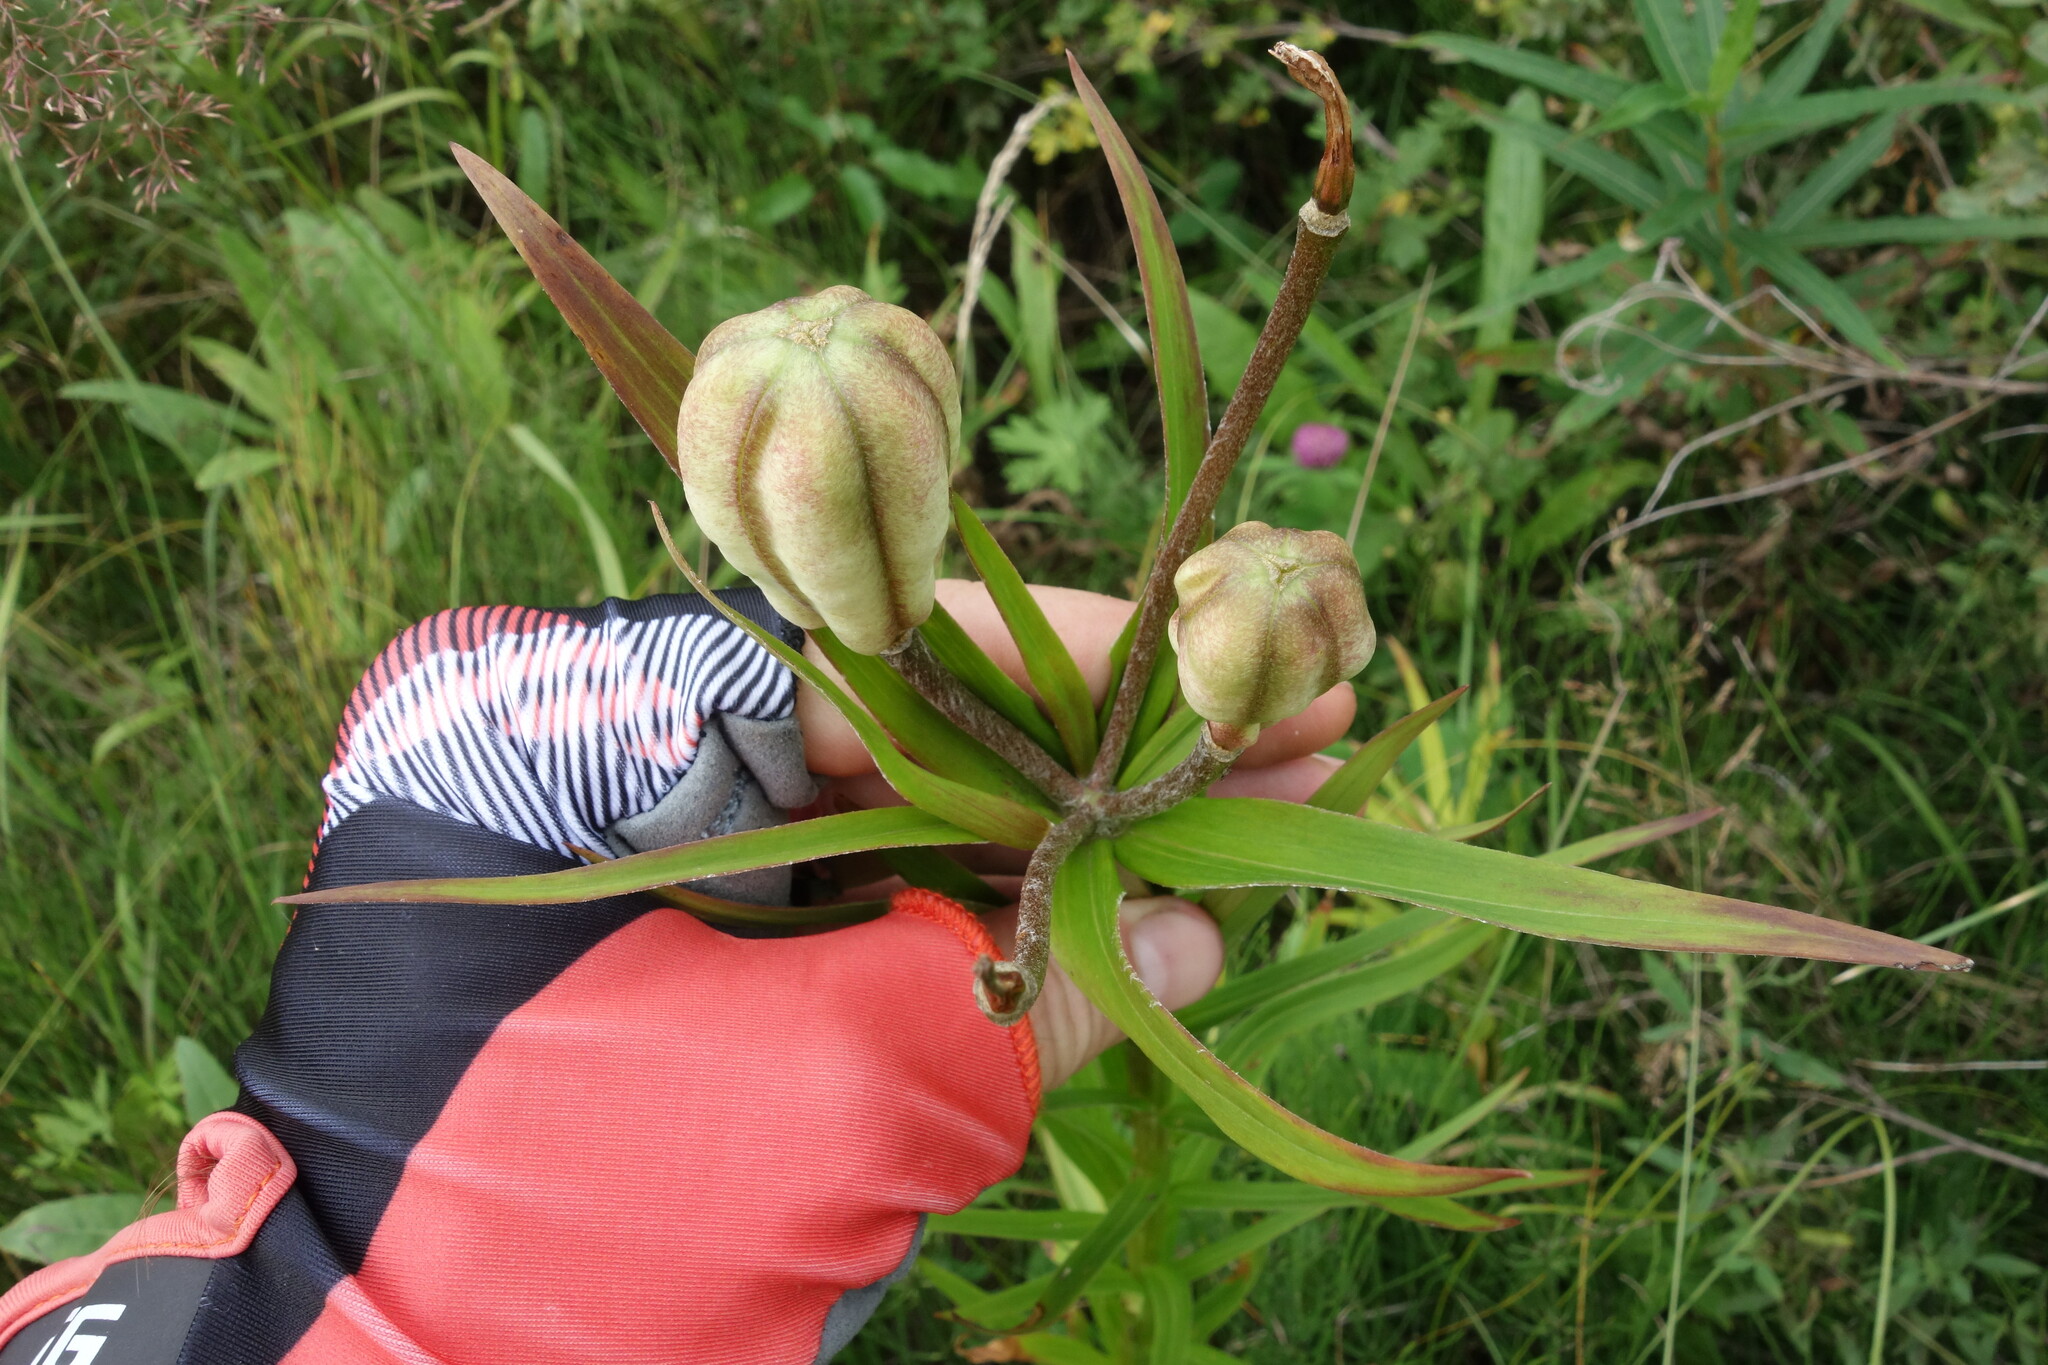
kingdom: Plantae
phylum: Tracheophyta
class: Liliopsida
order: Liliales
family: Liliaceae
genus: Lilium
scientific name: Lilium pensylvanicum
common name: Candlestick lily
